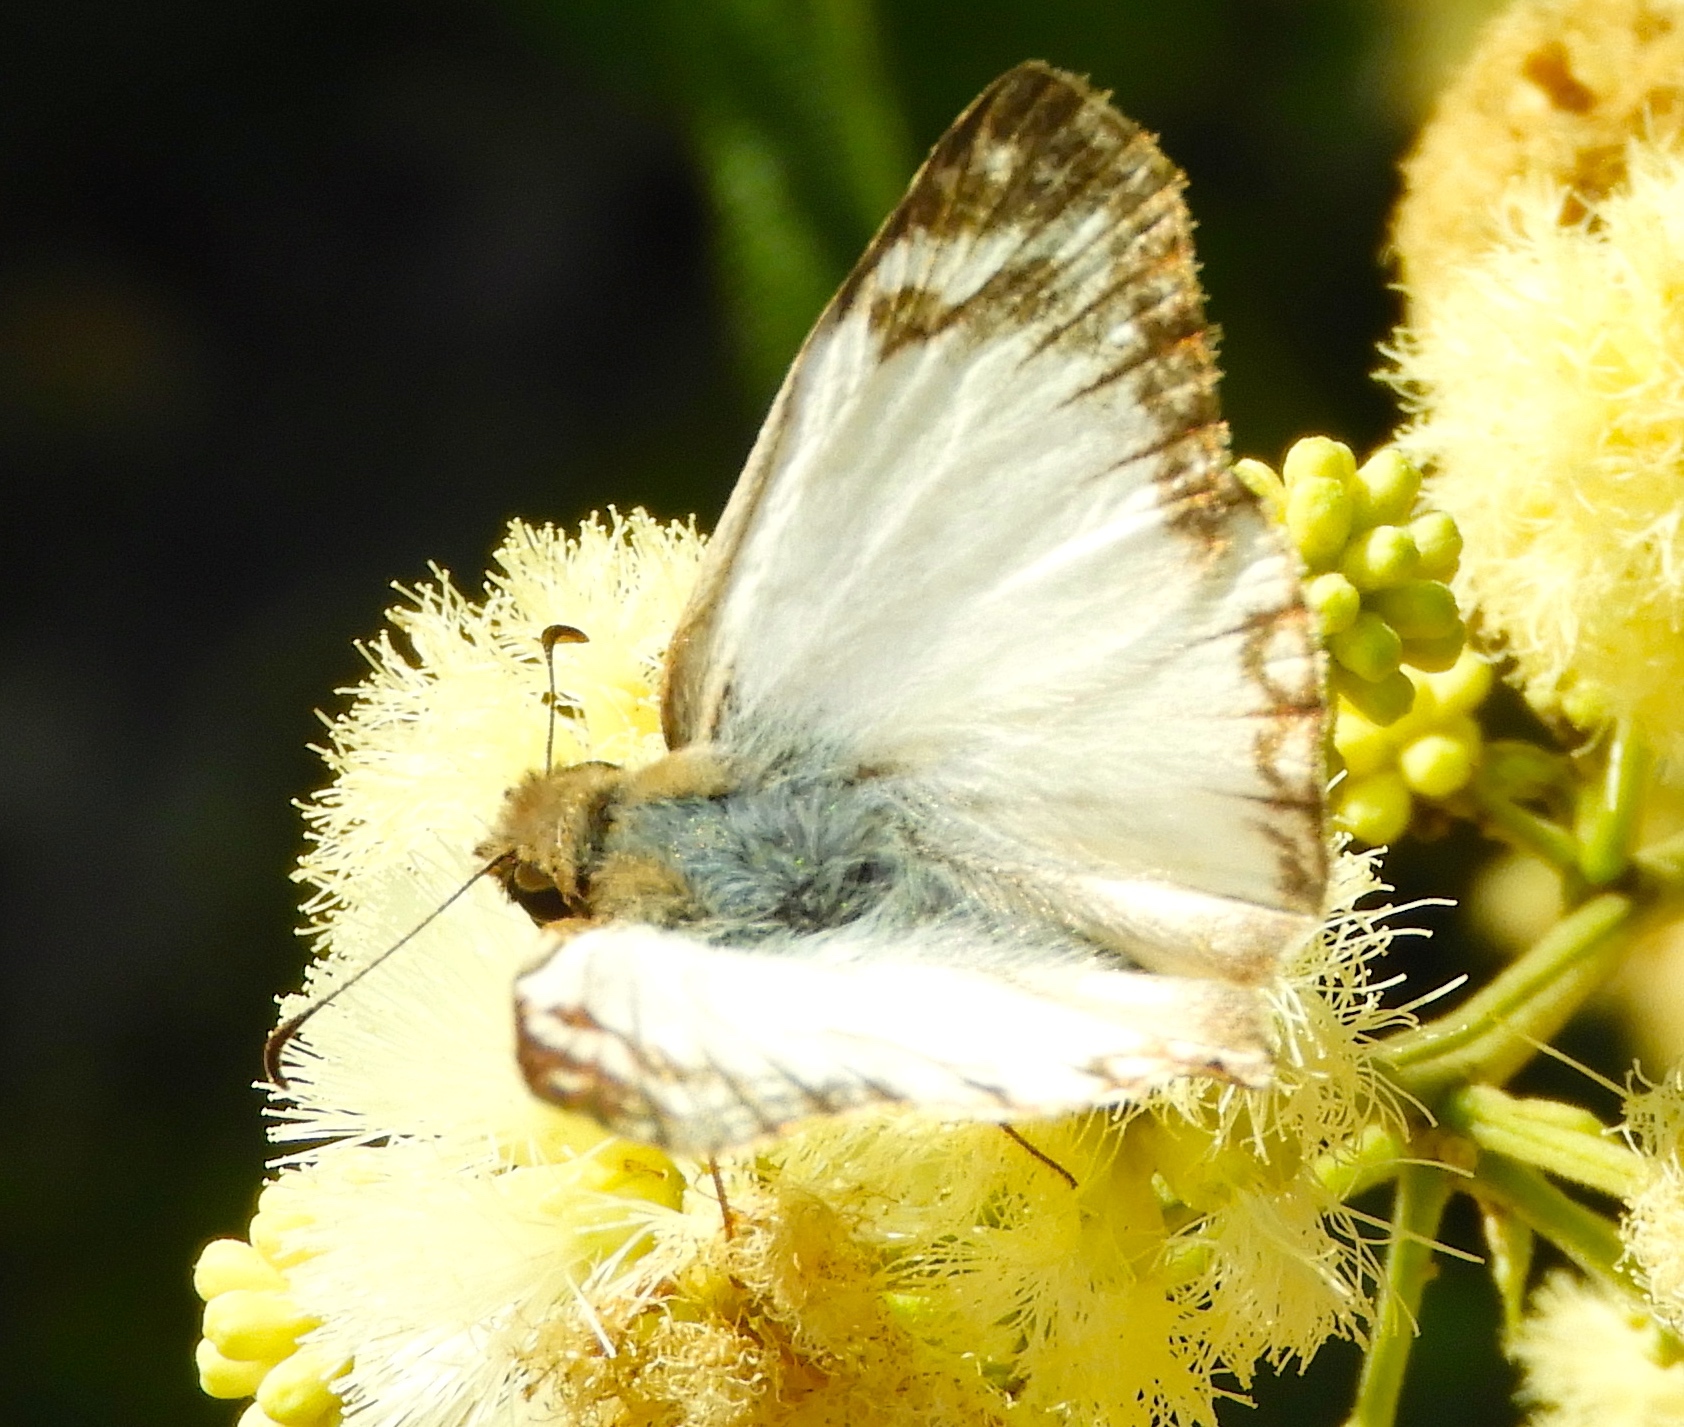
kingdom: Animalia
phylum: Arthropoda
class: Insecta
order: Lepidoptera
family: Hesperiidae
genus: Heliopetes
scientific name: Heliopetes laviana
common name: Laviana white-skipper
